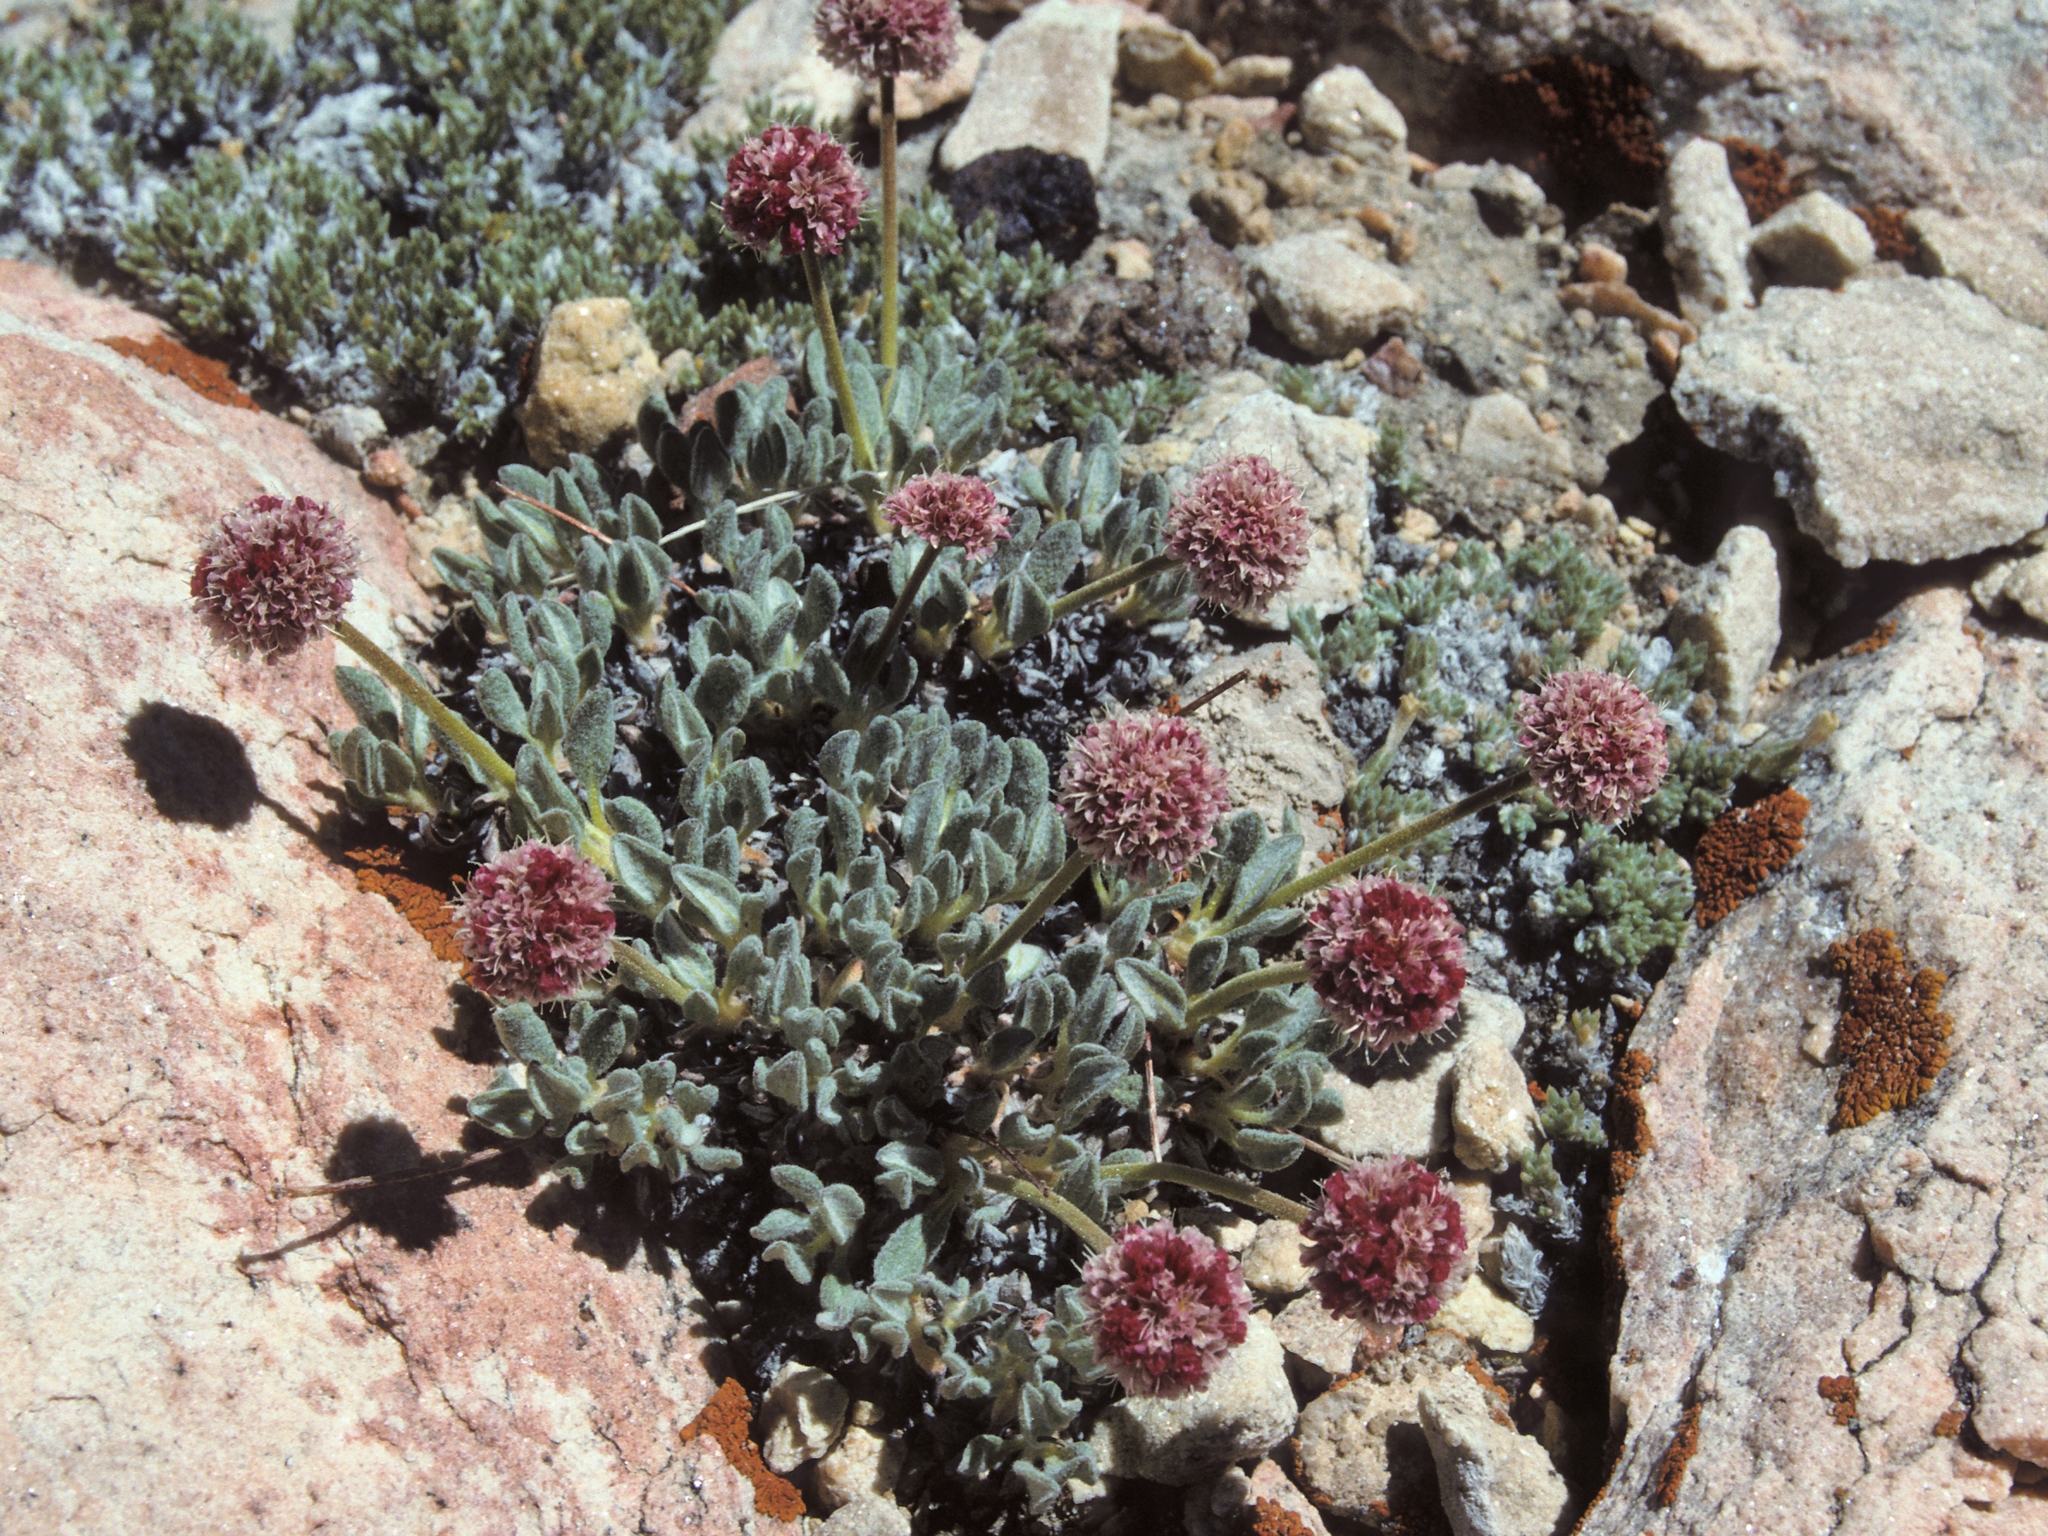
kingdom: Plantae
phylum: Tracheophyta
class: Magnoliopsida
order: Caryophyllales
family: Polygonaceae
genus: Eriogonum
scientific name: Eriogonum gracilipes
